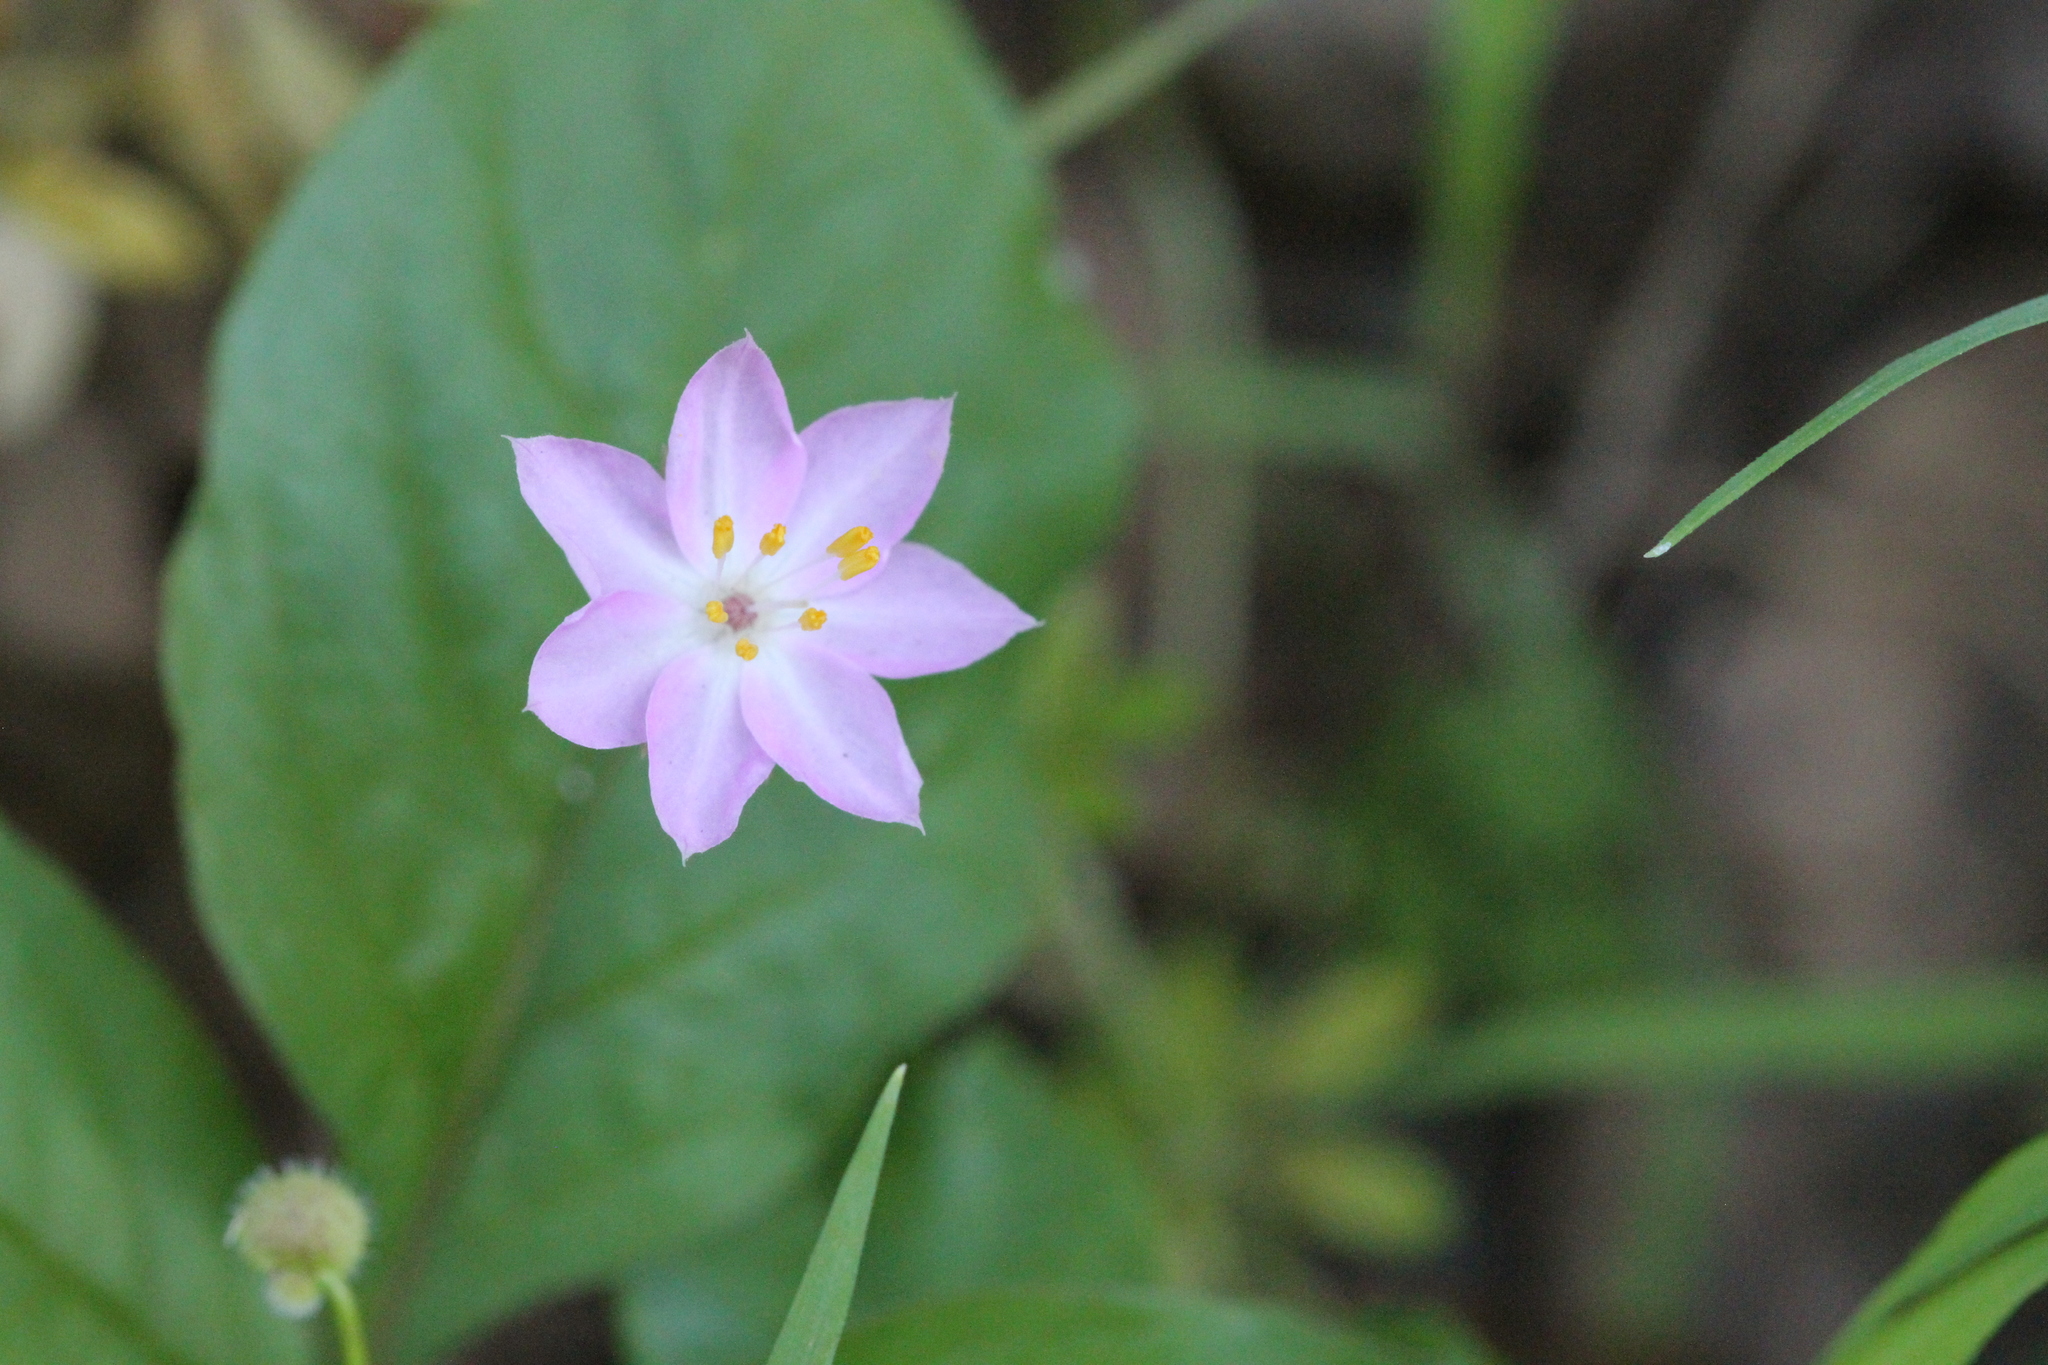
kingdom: Plantae
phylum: Tracheophyta
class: Magnoliopsida
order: Ericales
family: Primulaceae
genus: Lysimachia
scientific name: Lysimachia latifolia
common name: Pacific starflower
